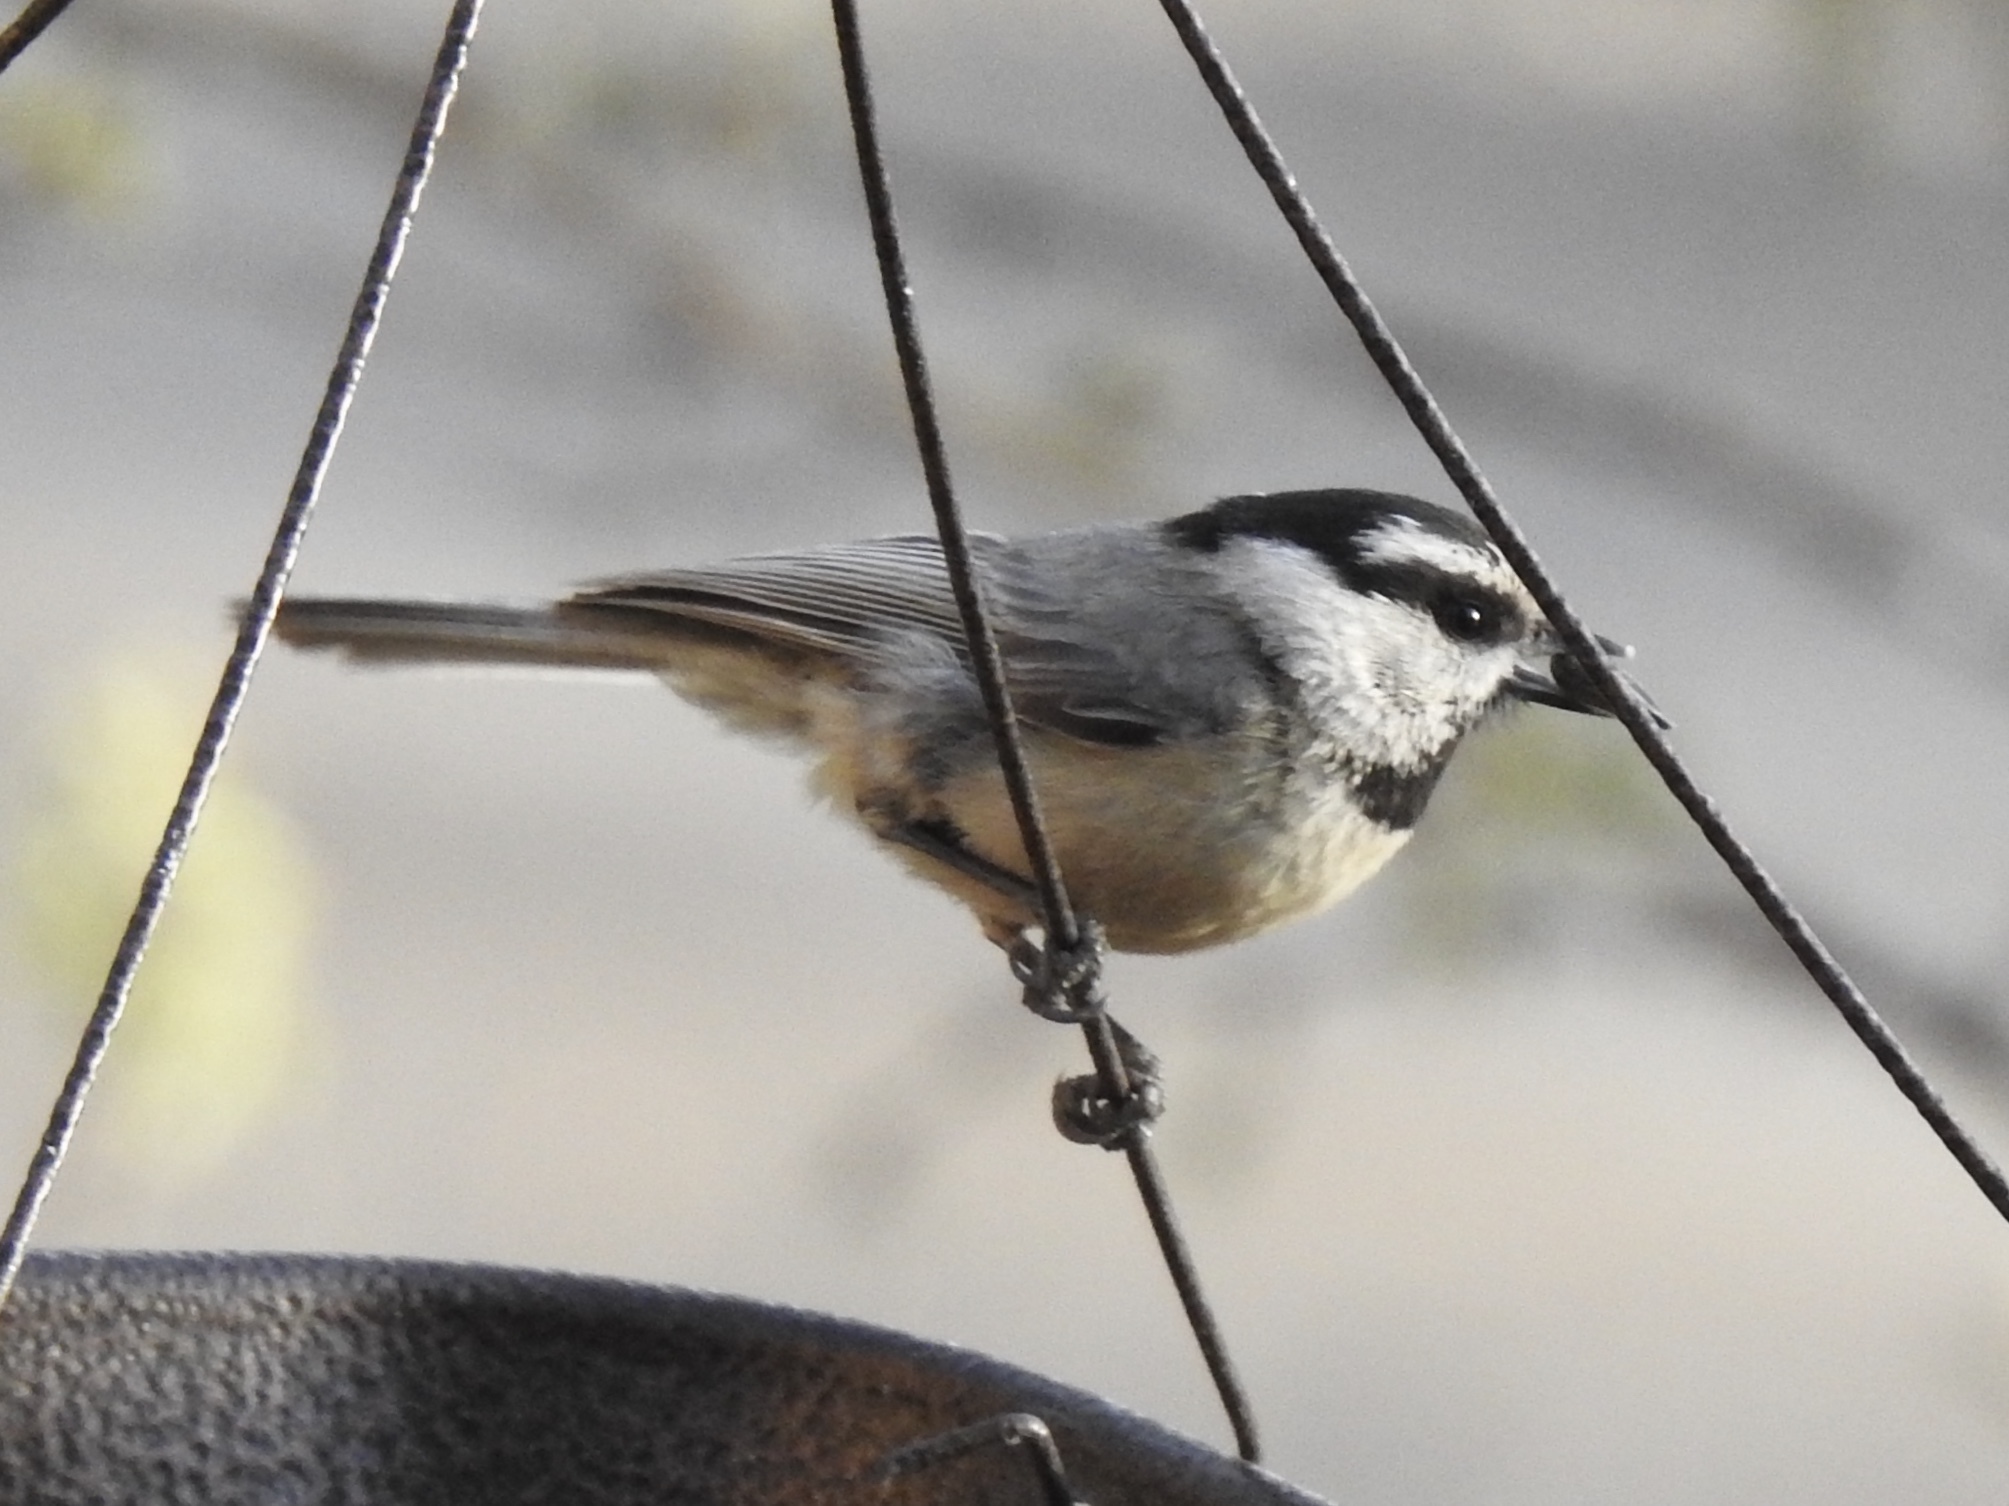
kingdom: Animalia
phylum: Chordata
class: Aves
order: Passeriformes
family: Paridae
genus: Poecile
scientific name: Poecile gambeli
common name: Mountain chickadee
